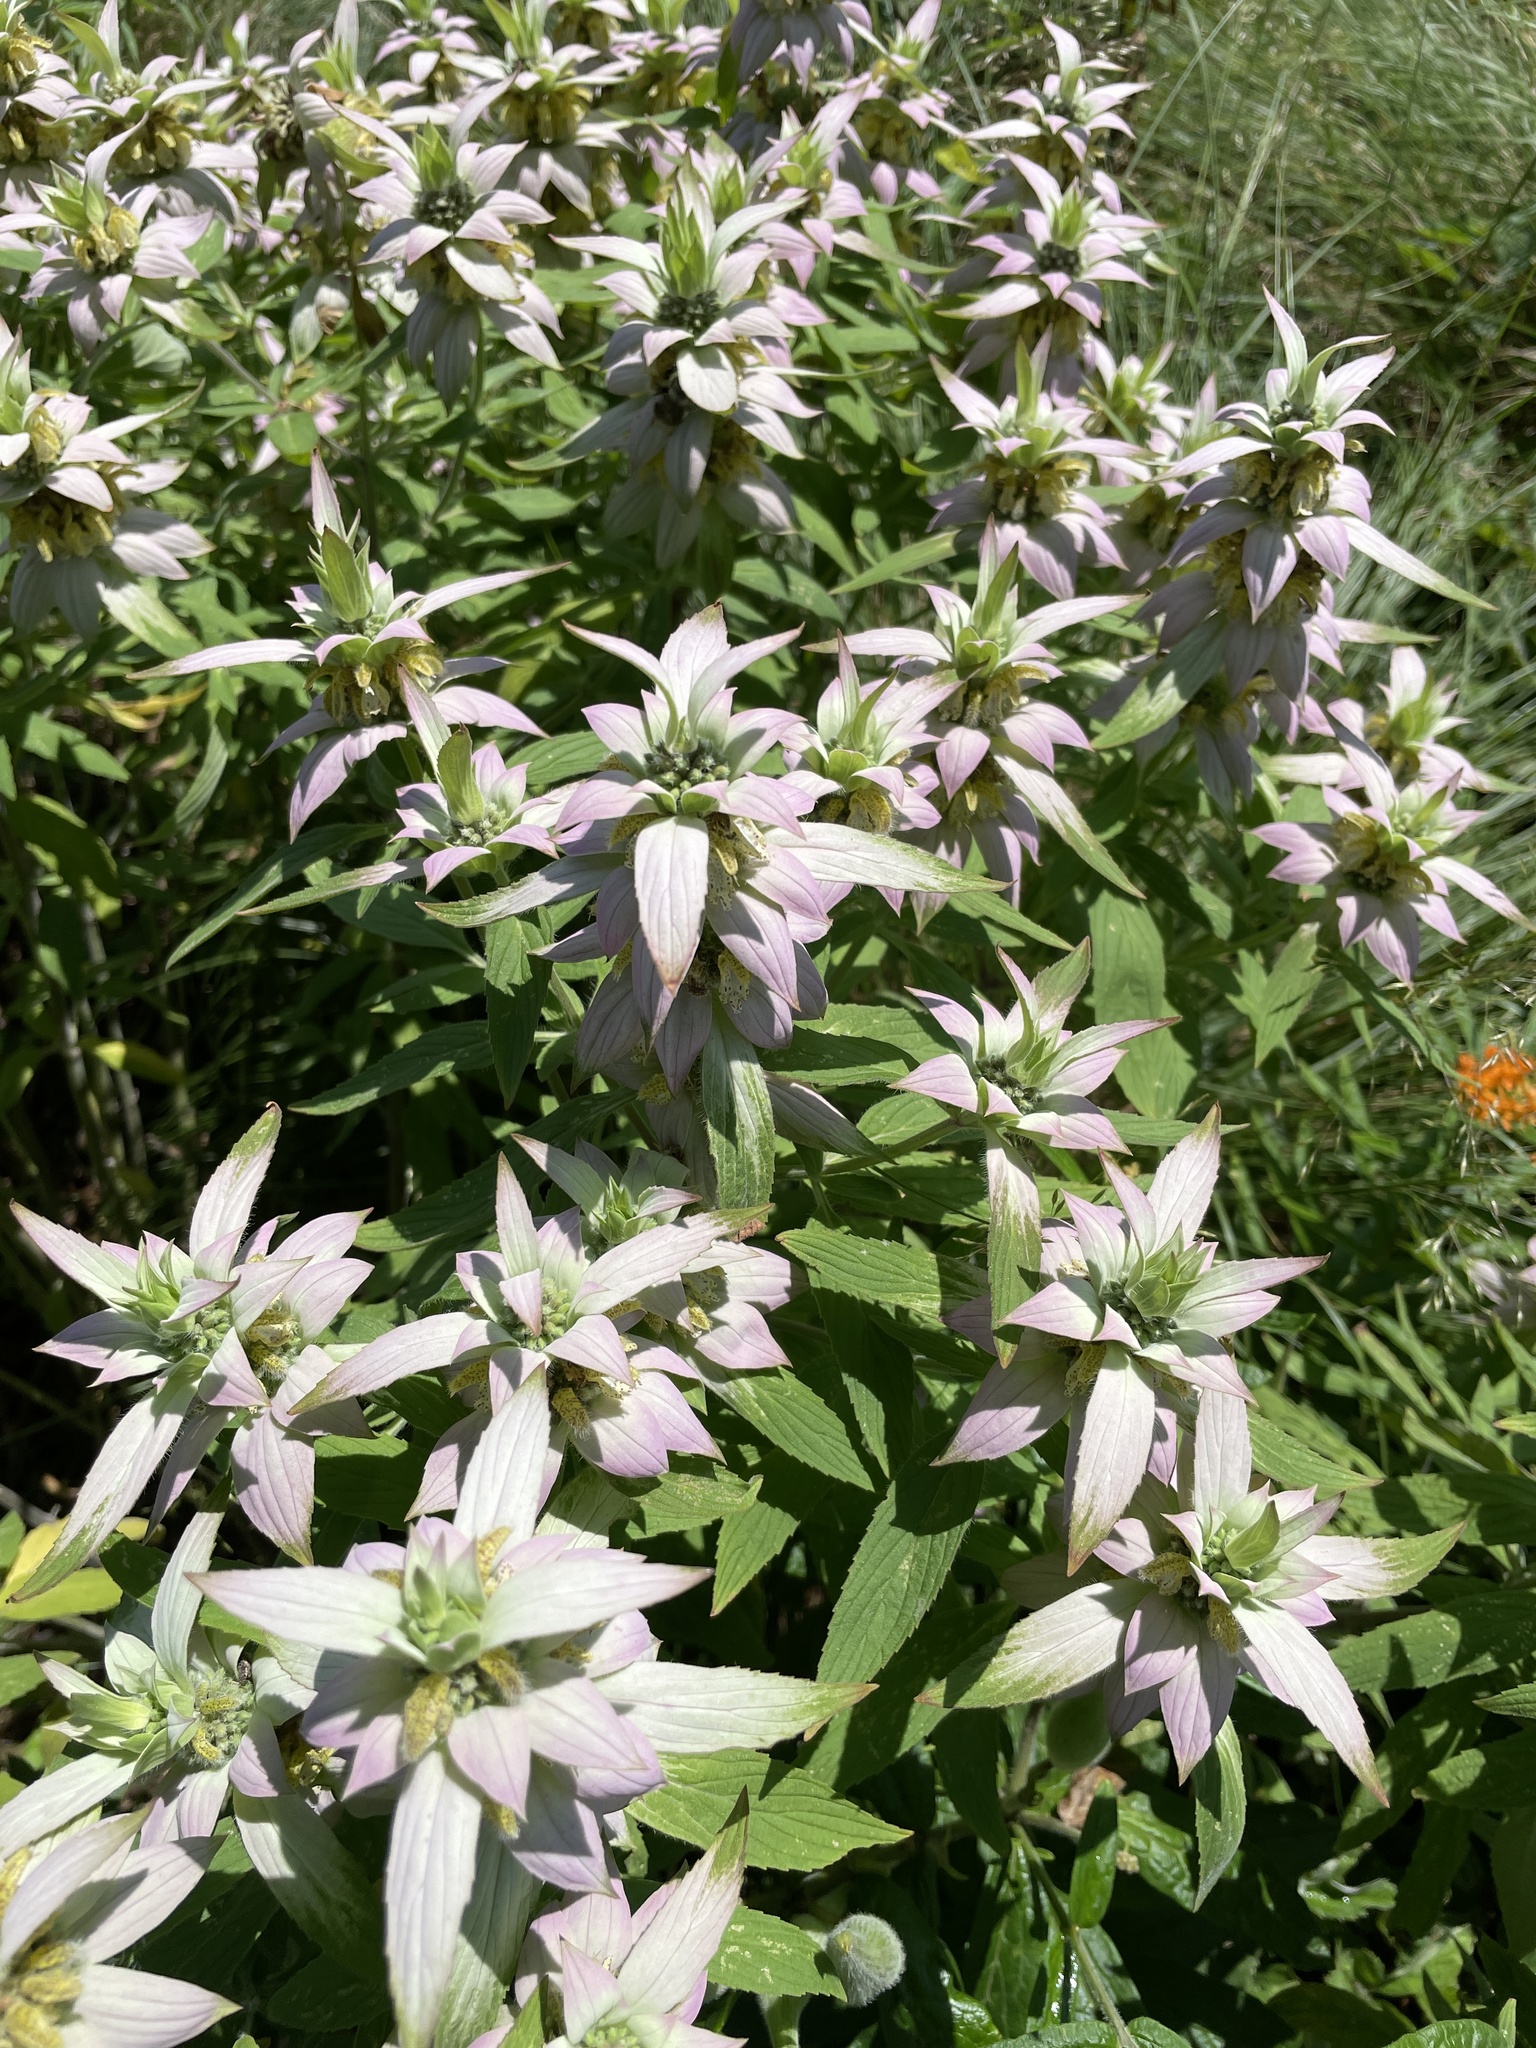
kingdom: Plantae
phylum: Tracheophyta
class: Magnoliopsida
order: Lamiales
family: Lamiaceae
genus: Monarda
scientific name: Monarda punctata
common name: Dotted monarda
